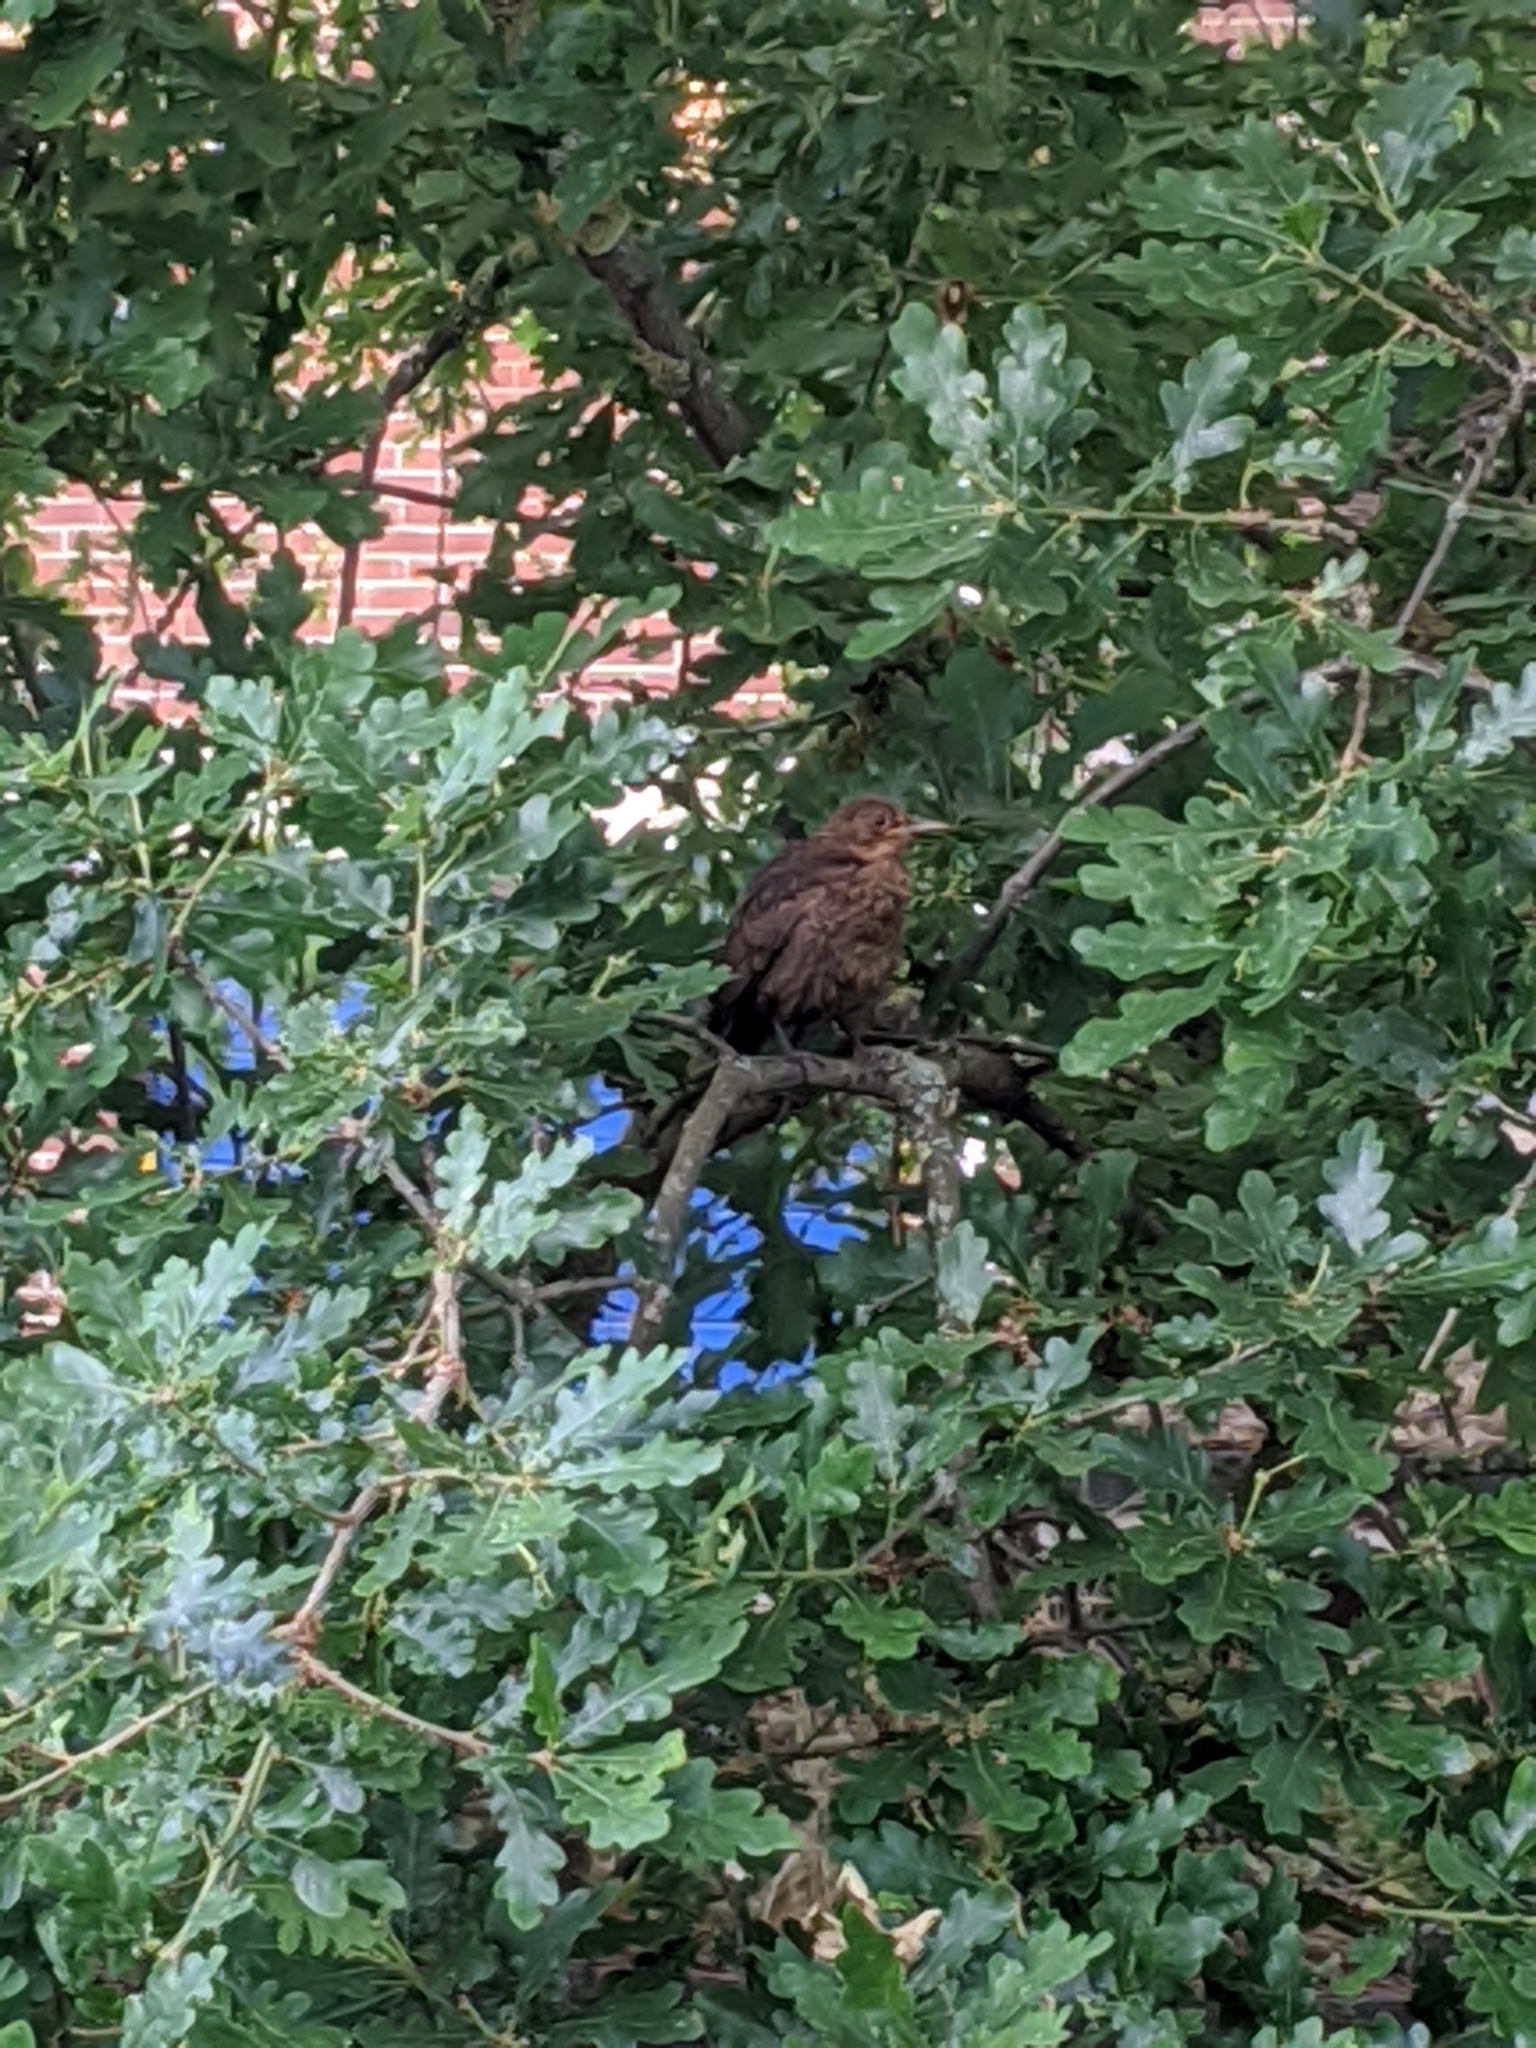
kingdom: Animalia
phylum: Chordata
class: Aves
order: Passeriformes
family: Turdidae
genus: Turdus
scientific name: Turdus merula
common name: Common blackbird
